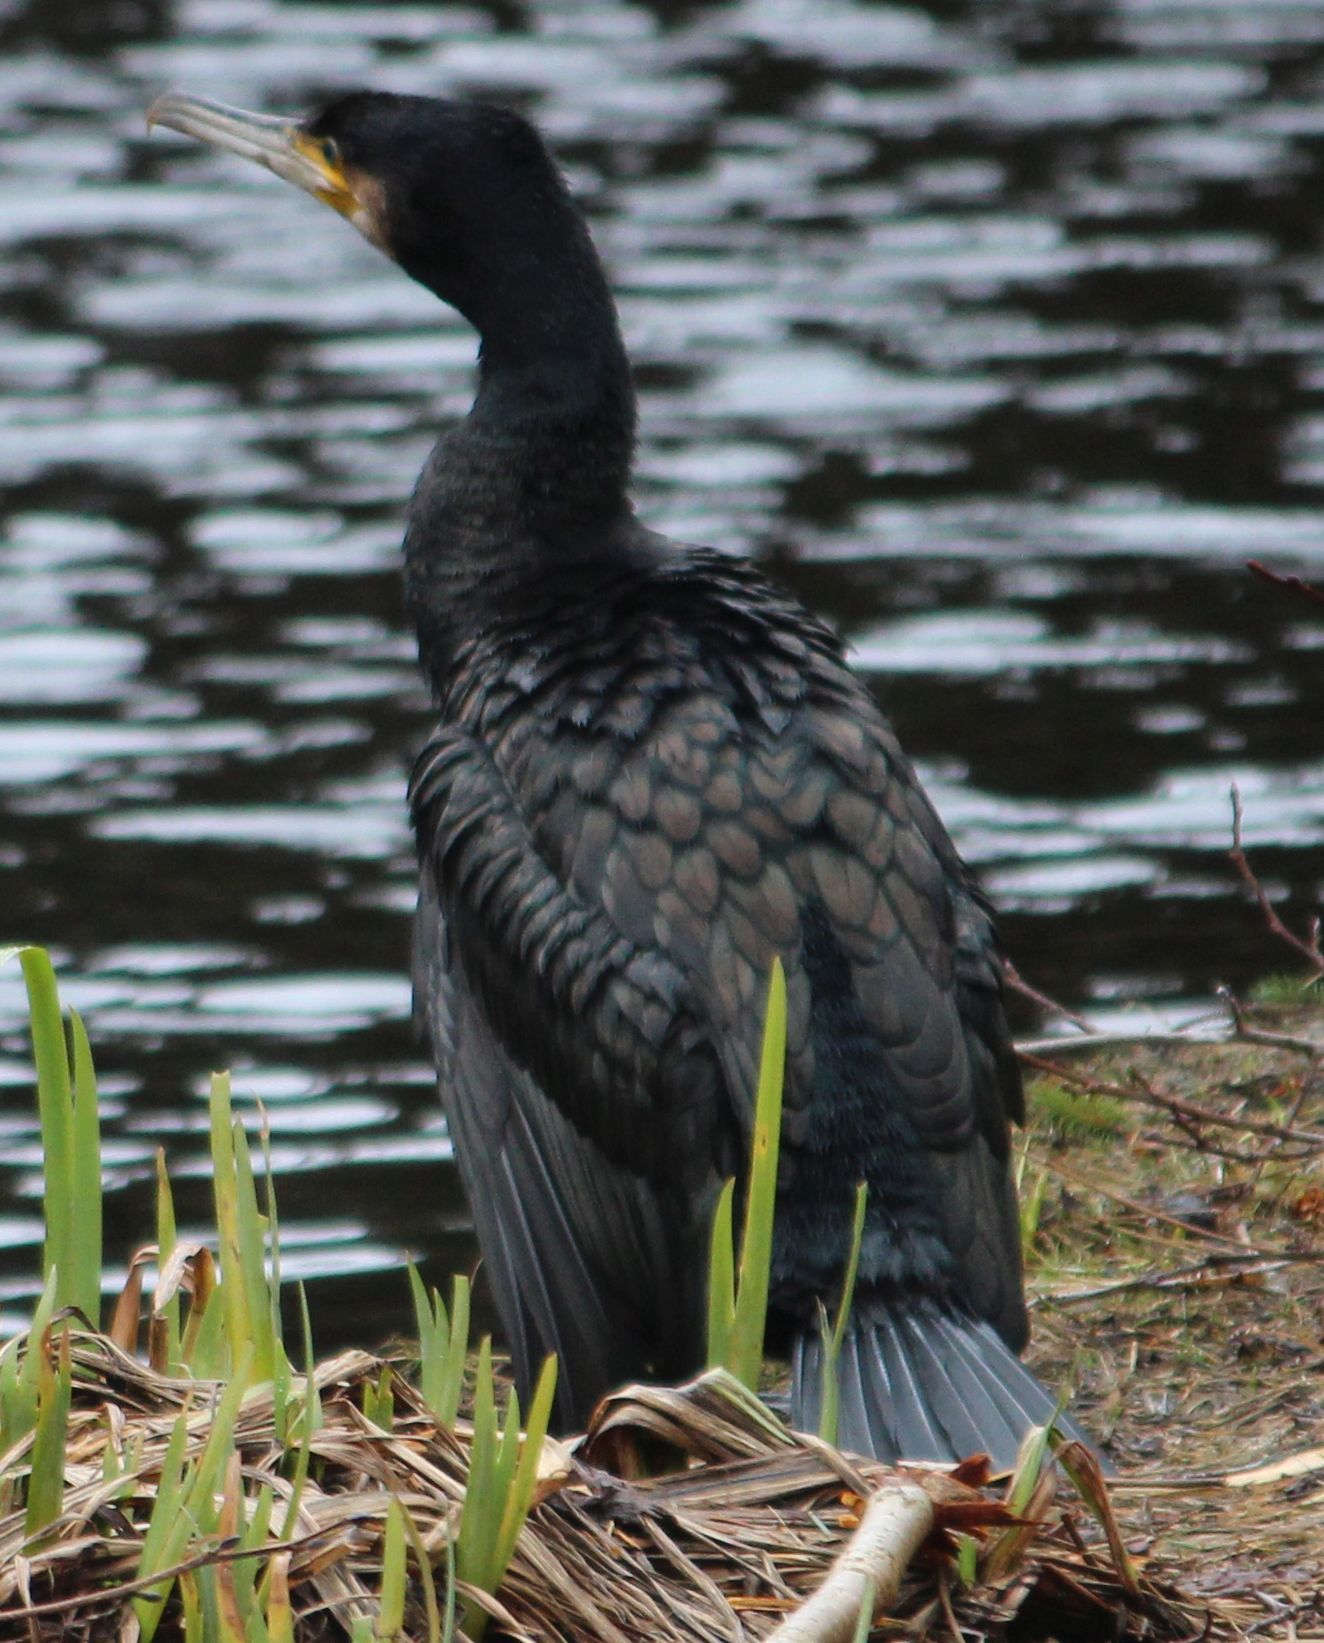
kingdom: Animalia
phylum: Chordata
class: Aves
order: Suliformes
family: Phalacrocoracidae
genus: Phalacrocorax
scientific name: Phalacrocorax carbo
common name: Great cormorant
